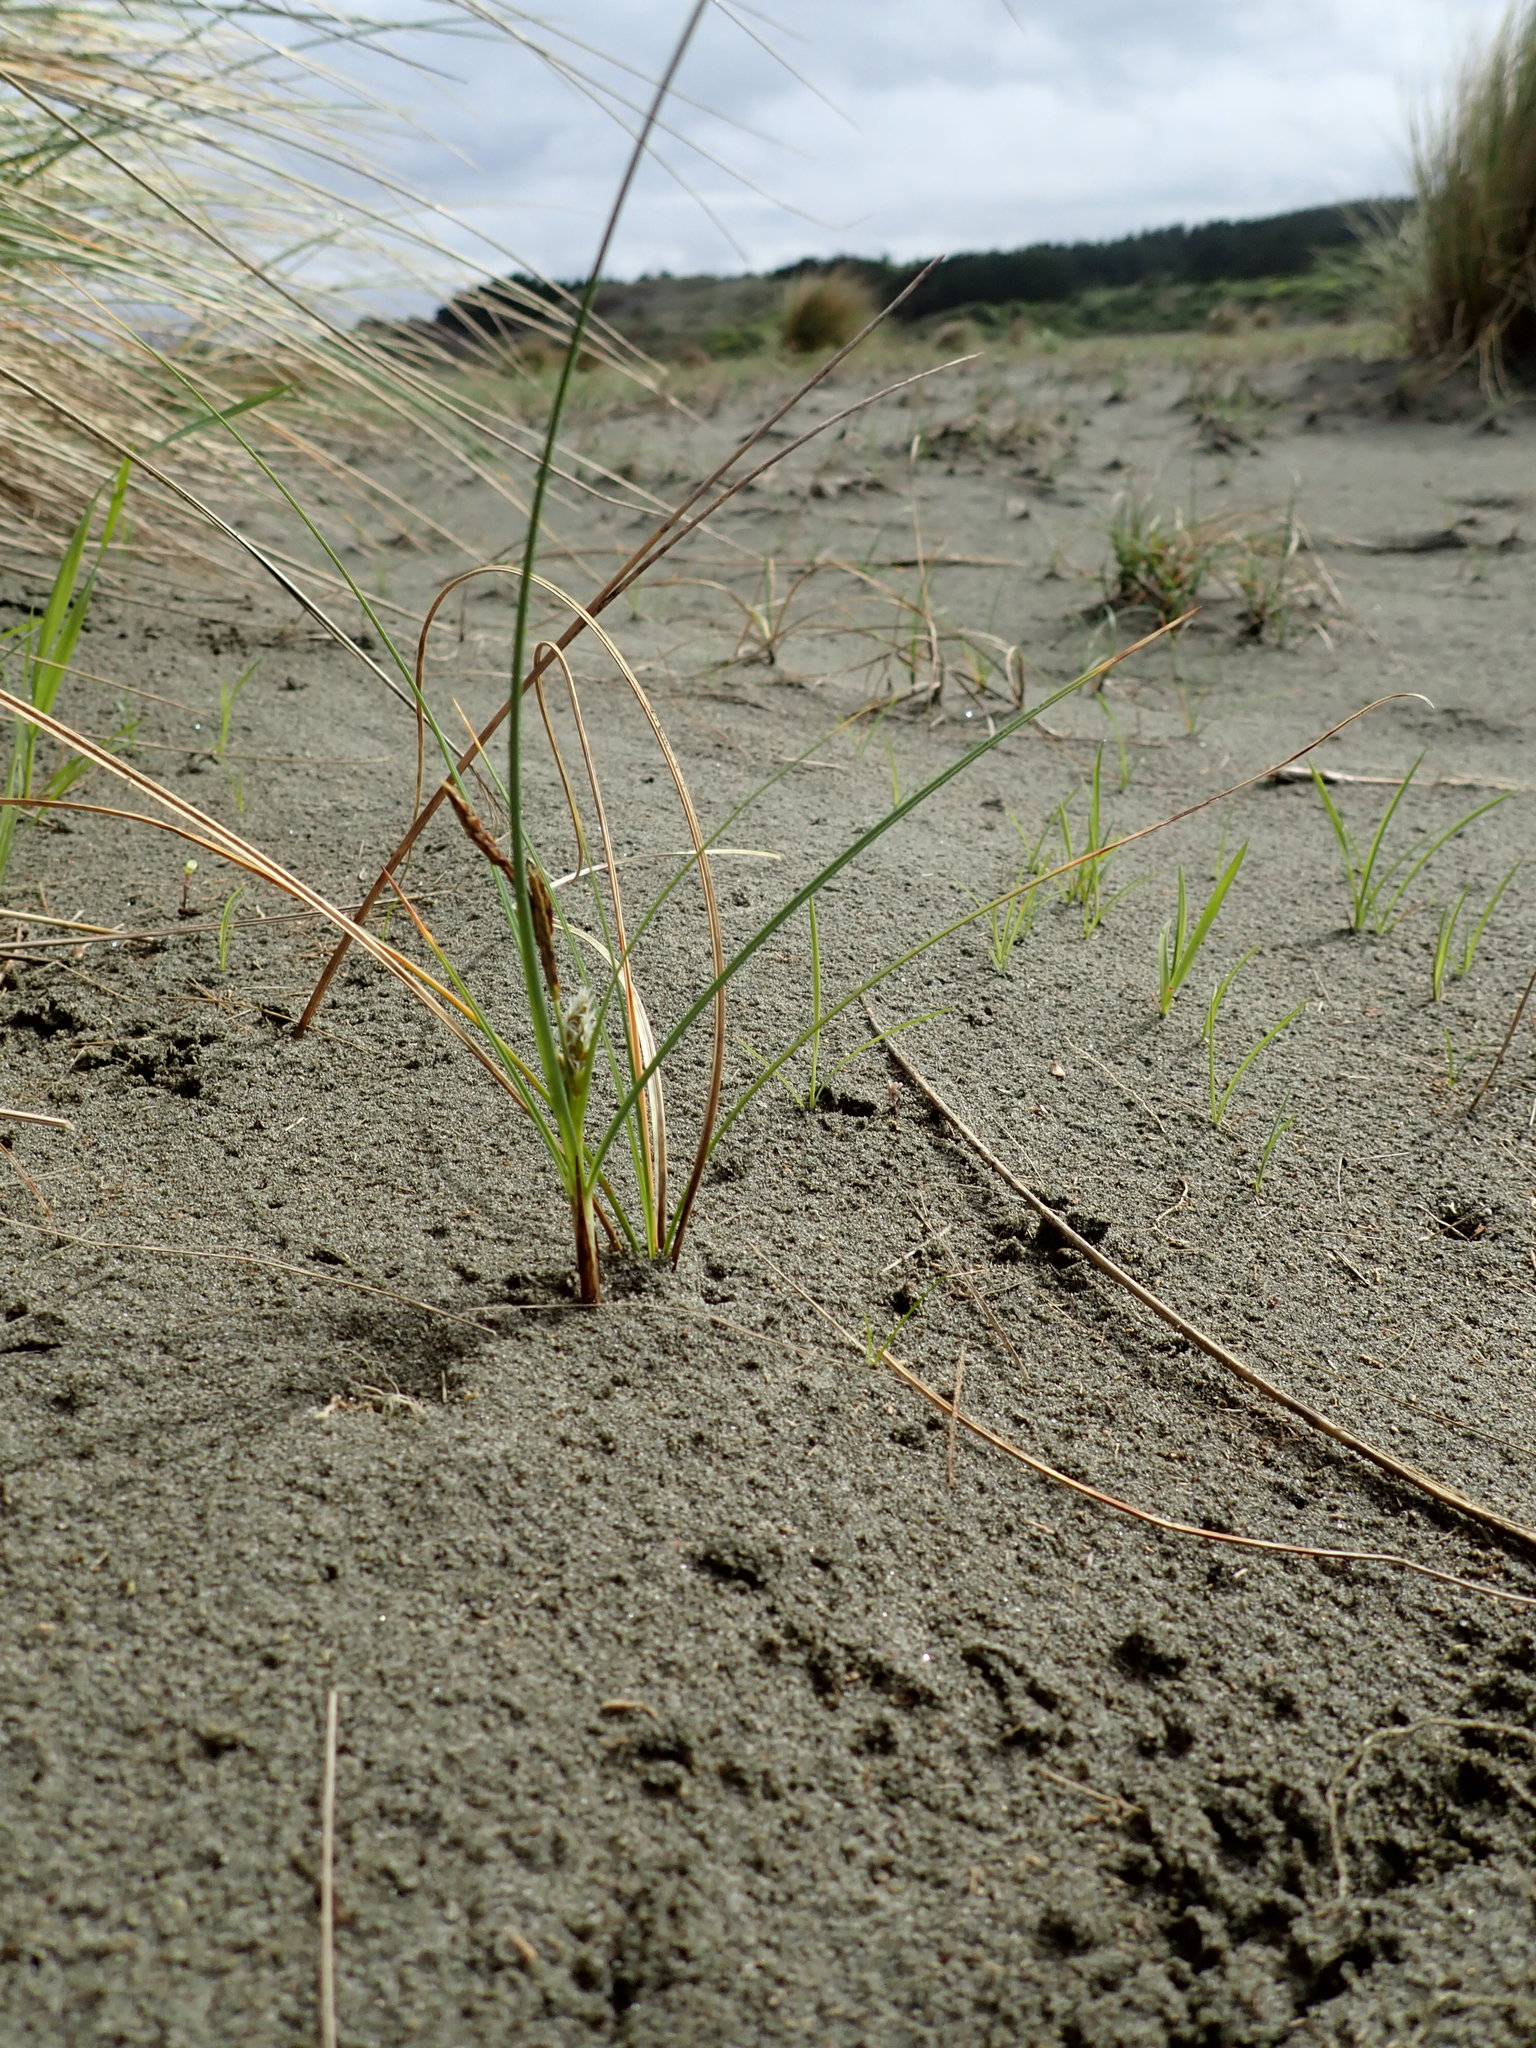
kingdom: Plantae
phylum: Tracheophyta
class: Liliopsida
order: Poales
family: Cyperaceae
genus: Carex
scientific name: Carex pumila
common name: Dwarf sedge
